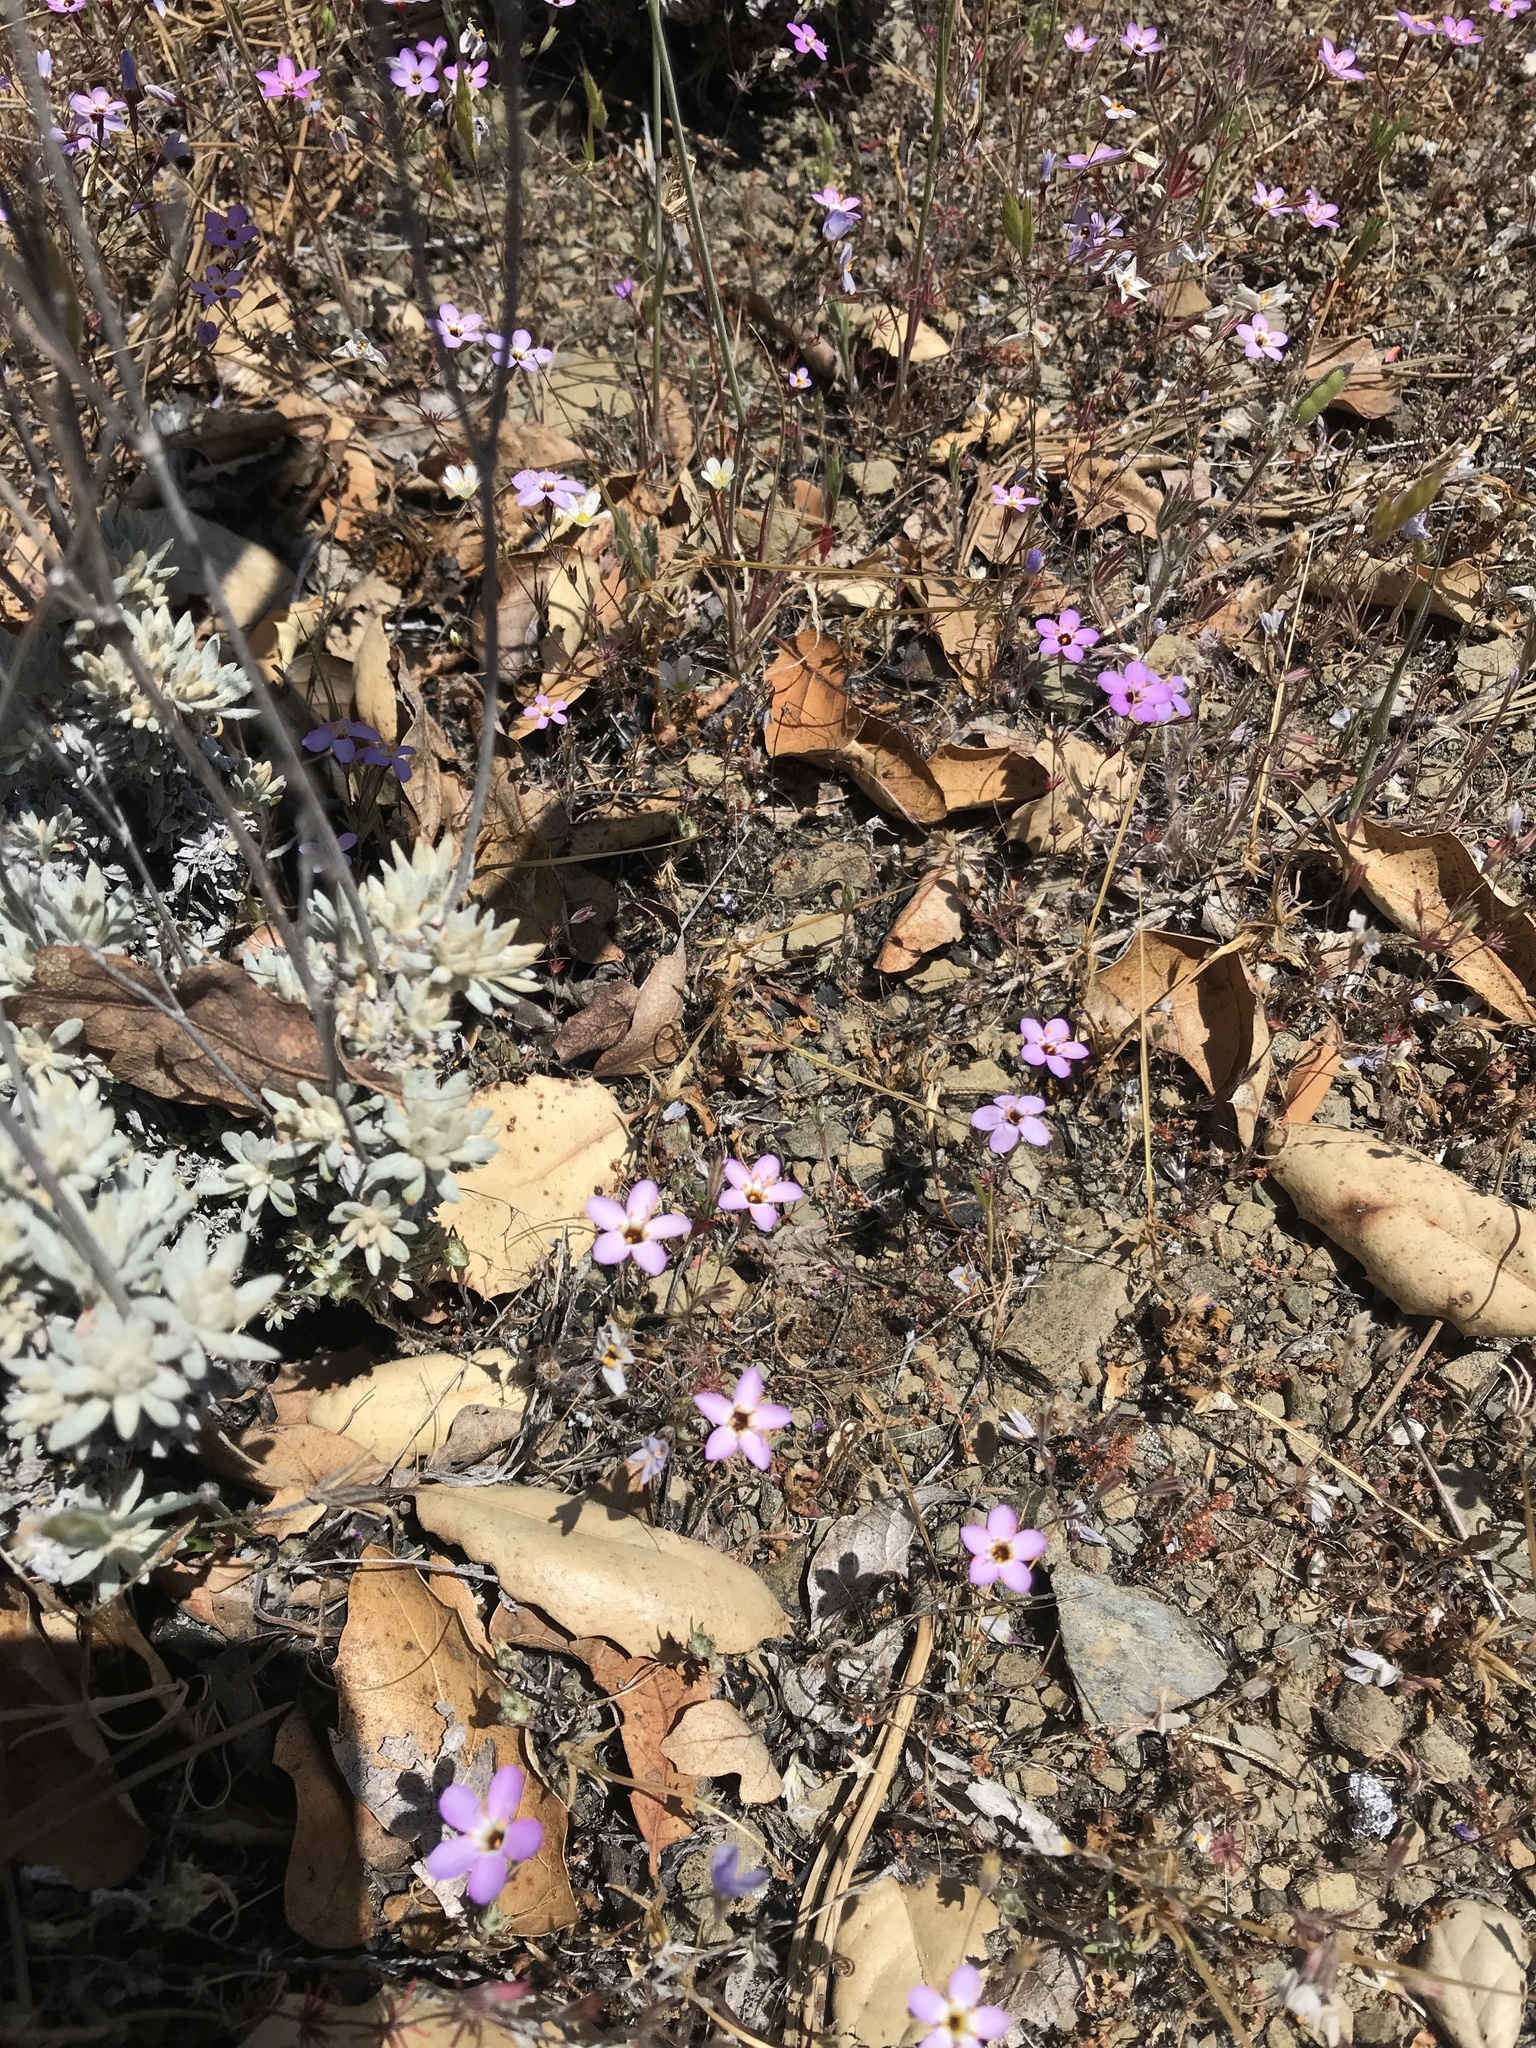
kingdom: Plantae
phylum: Tracheophyta
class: Magnoliopsida
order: Ericales
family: Polemoniaceae
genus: Leptosiphon
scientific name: Leptosiphon ambiguus
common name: Serpentine linanthus
